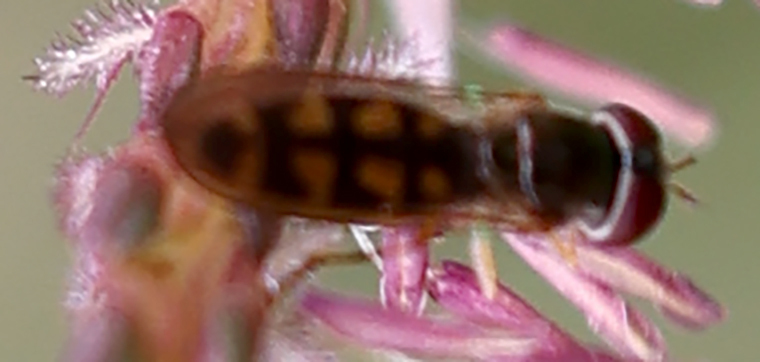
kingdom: Animalia
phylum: Arthropoda
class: Insecta
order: Diptera
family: Syrphidae
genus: Melanostoma
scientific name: Melanostoma mellina
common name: Hover fly
